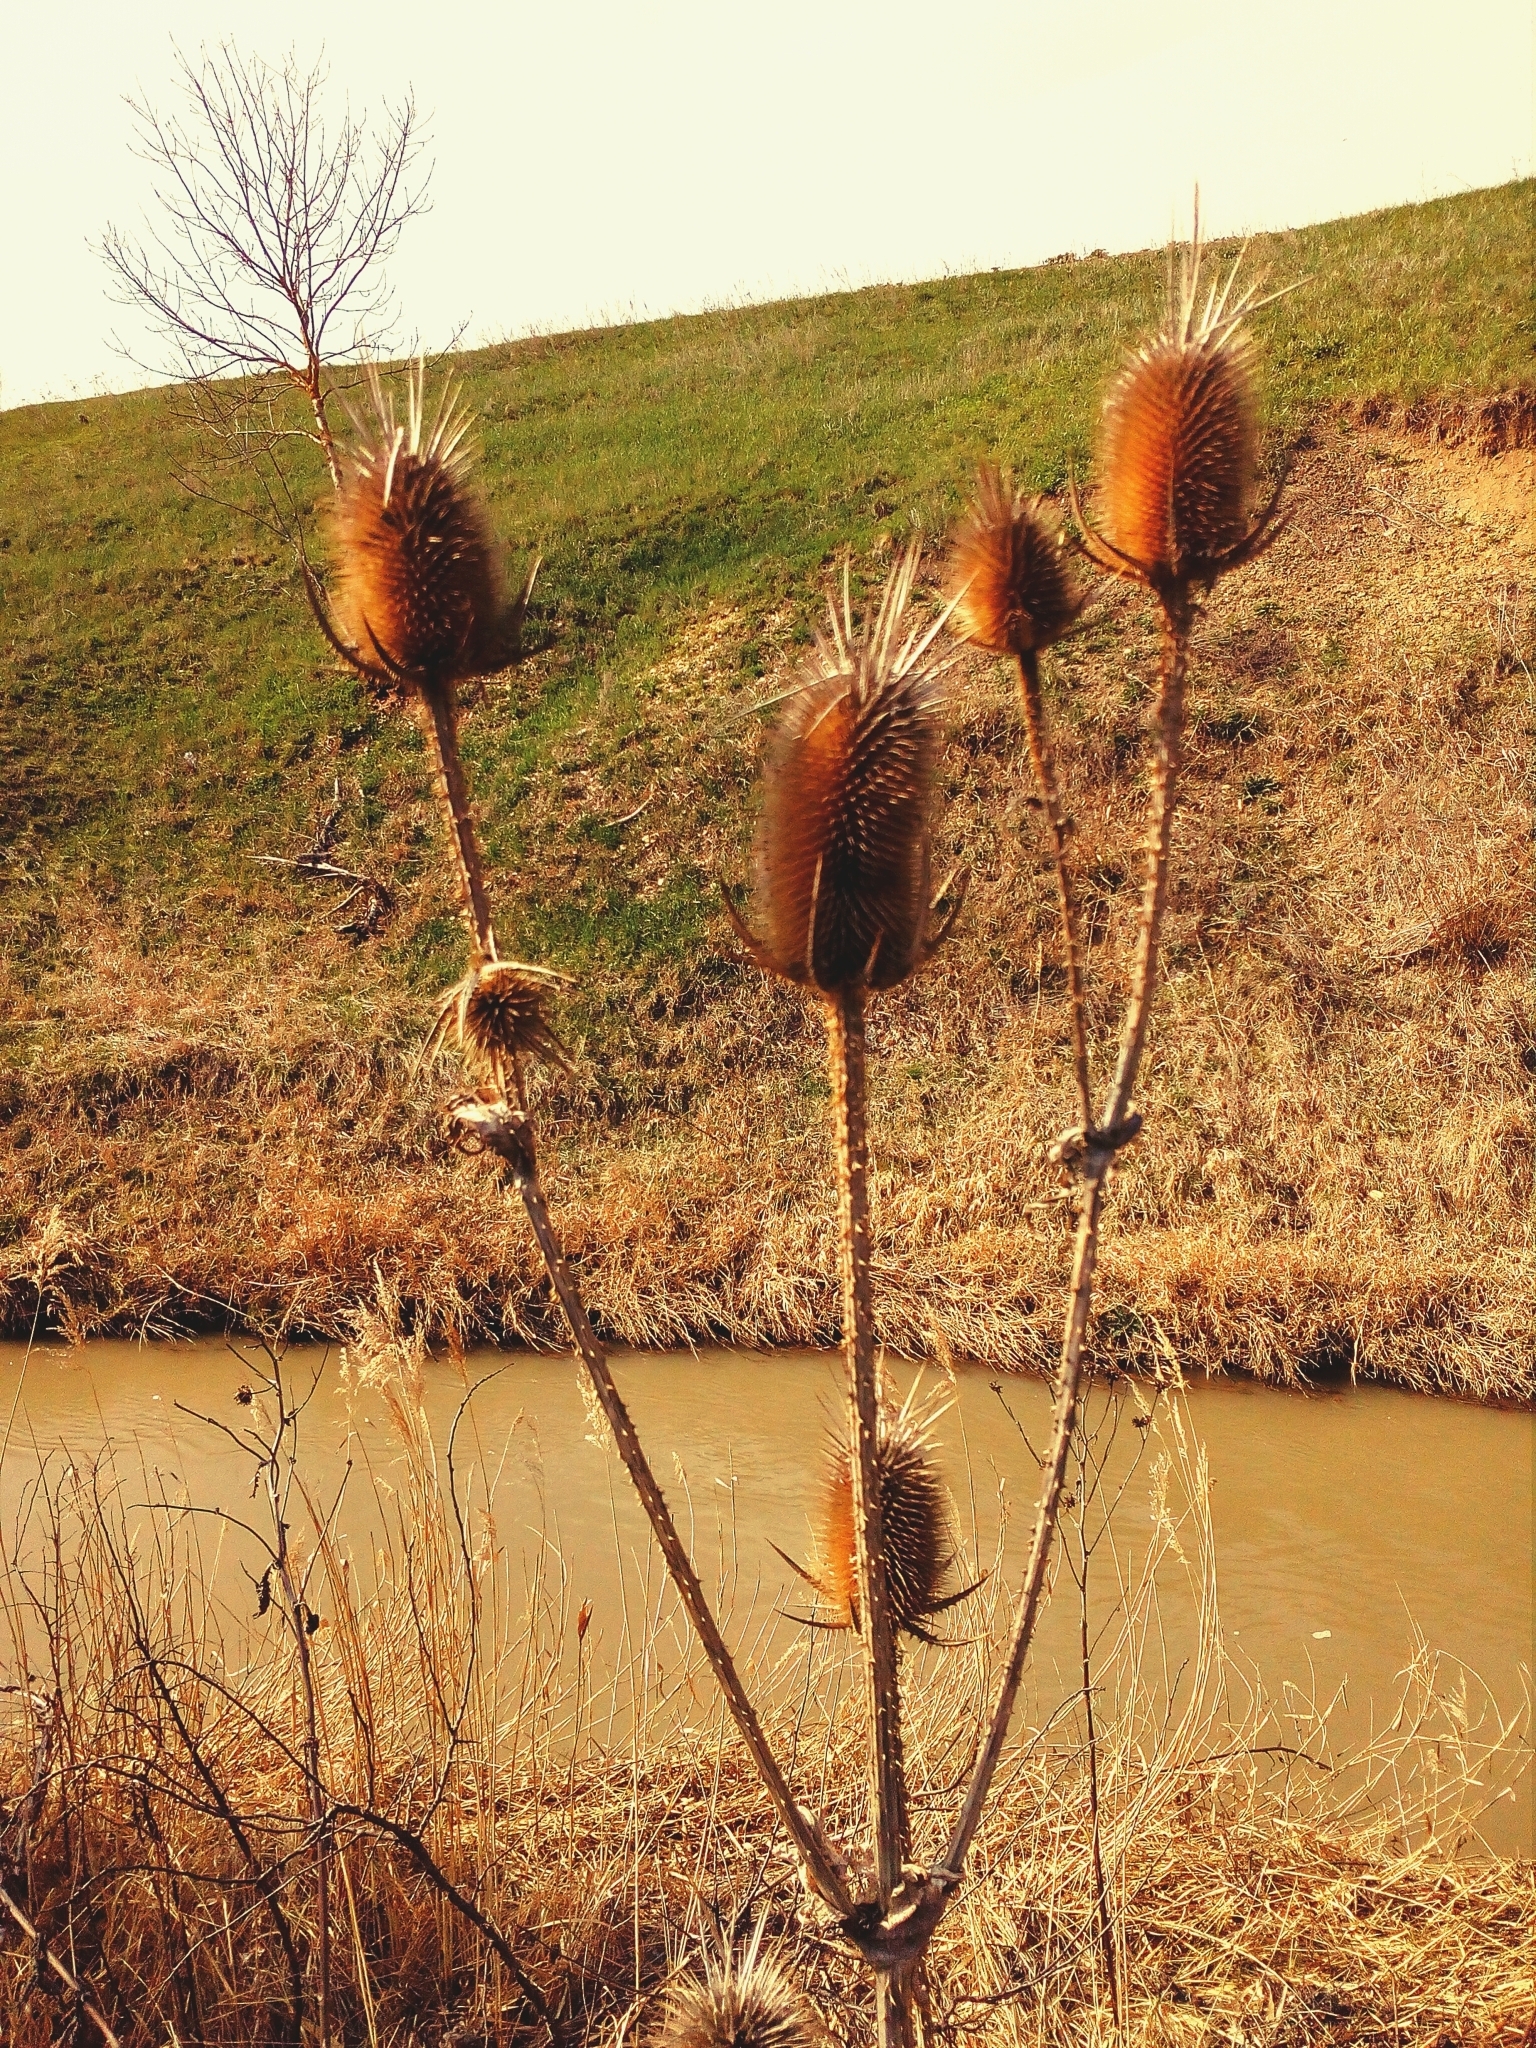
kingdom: Plantae
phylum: Tracheophyta
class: Magnoliopsida
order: Dipsacales
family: Caprifoliaceae
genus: Dipsacus
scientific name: Dipsacus laciniatus
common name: Cut-leaved teasel
